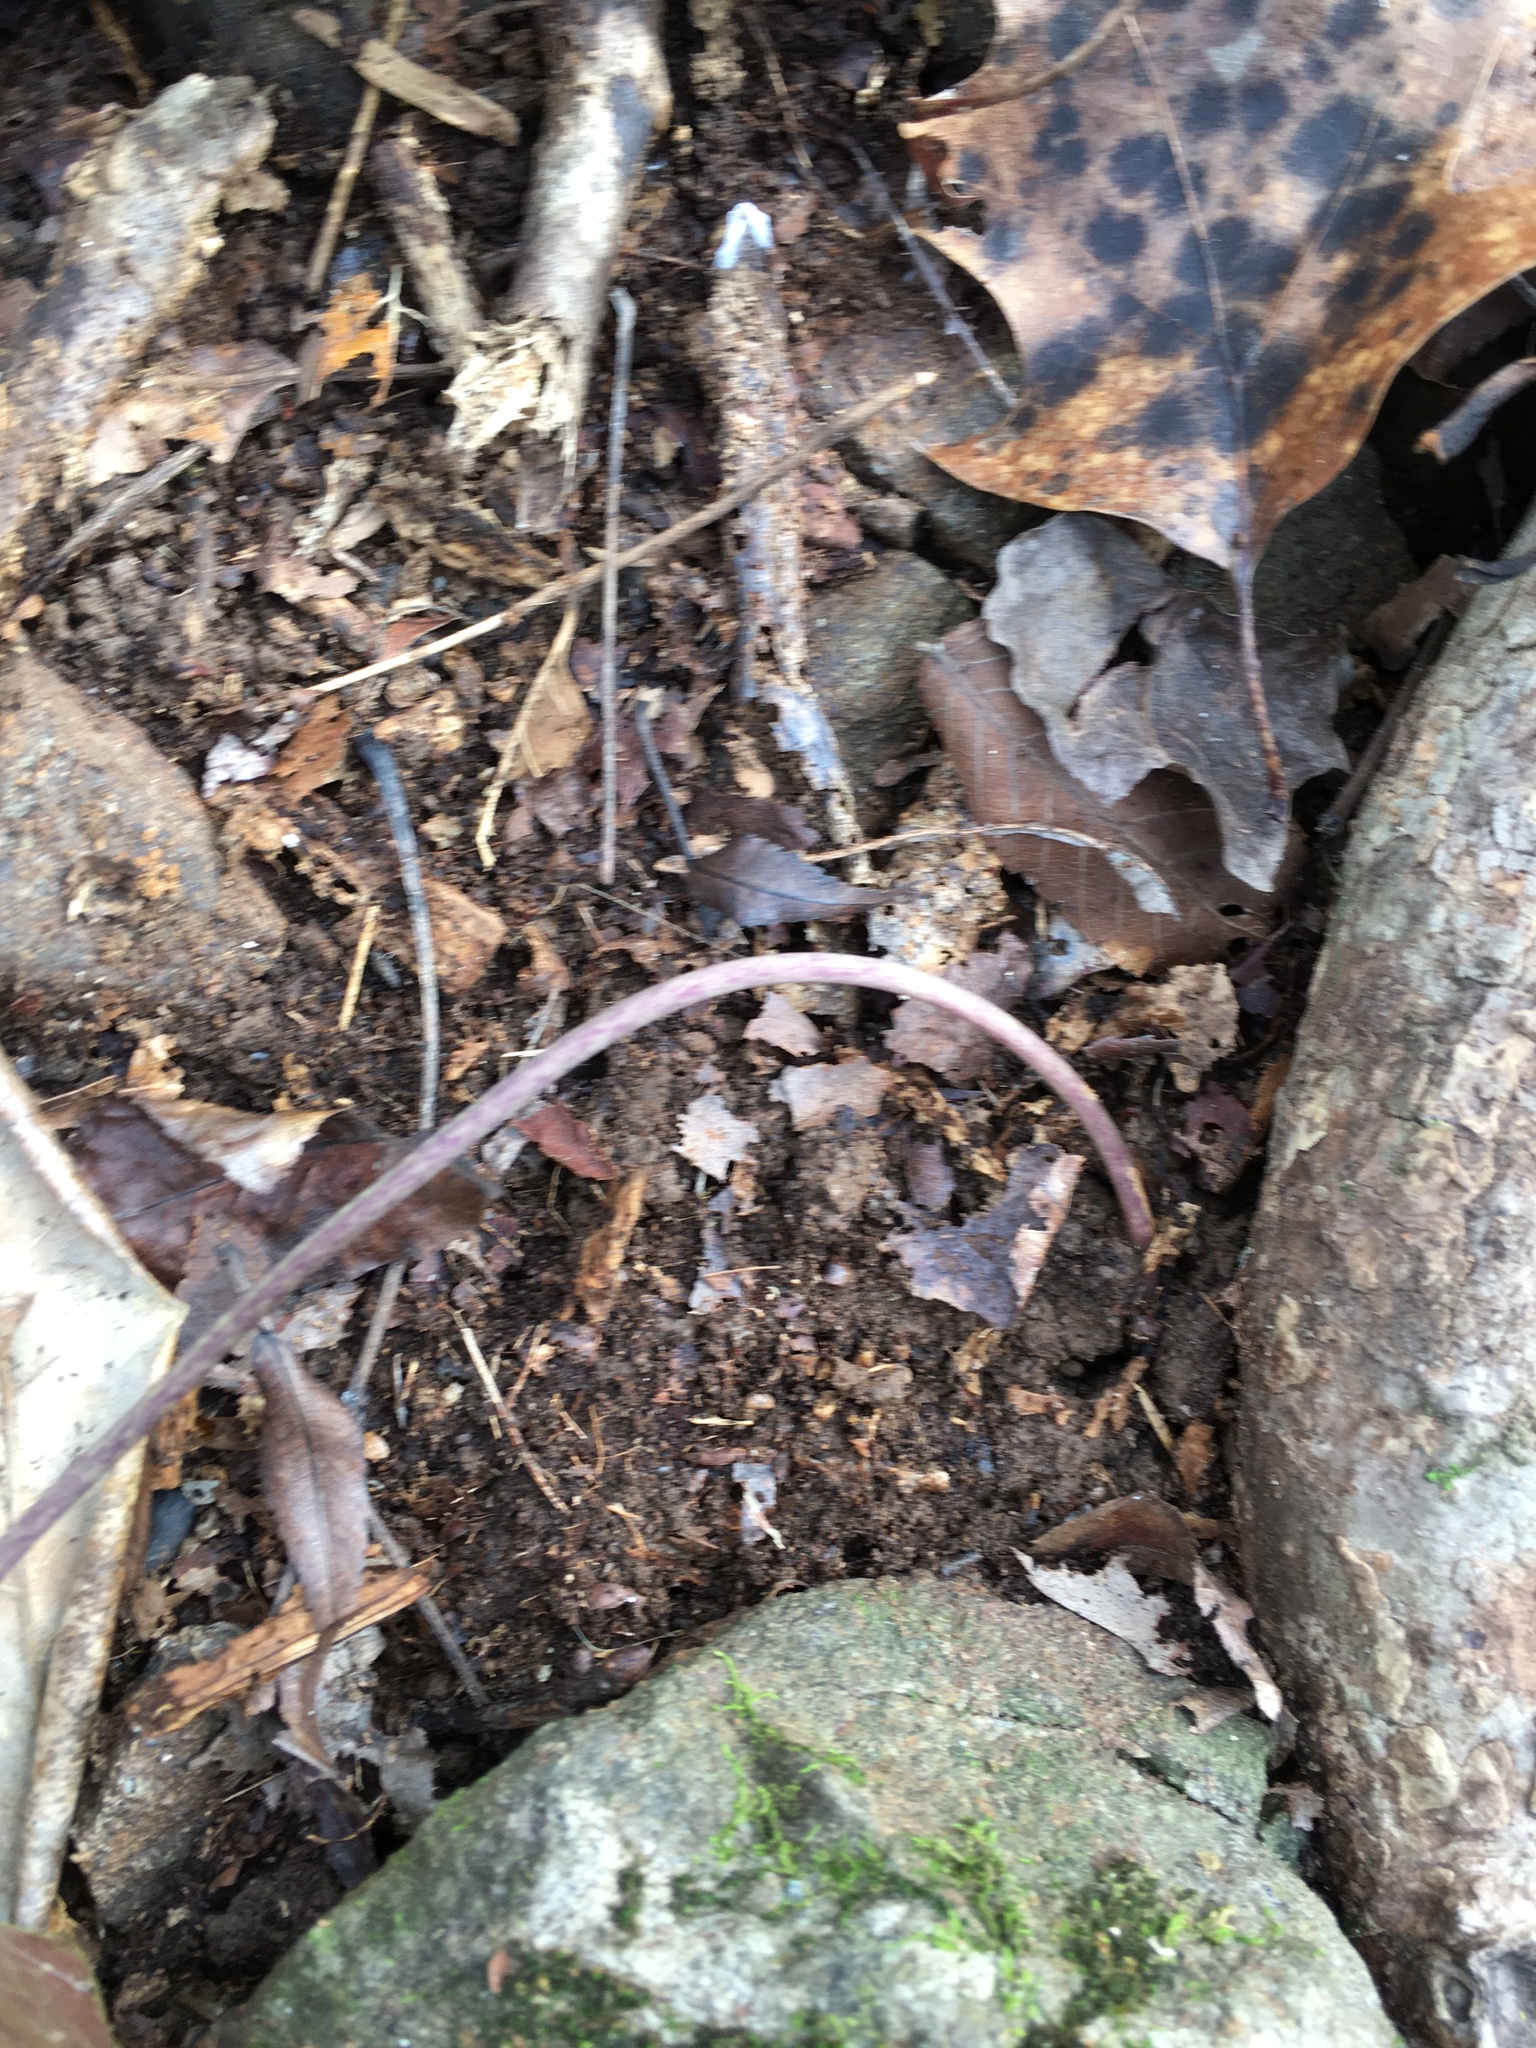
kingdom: Plantae
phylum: Tracheophyta
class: Magnoliopsida
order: Piperales
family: Aristolochiaceae
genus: Hexastylis
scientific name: Hexastylis arifolia
